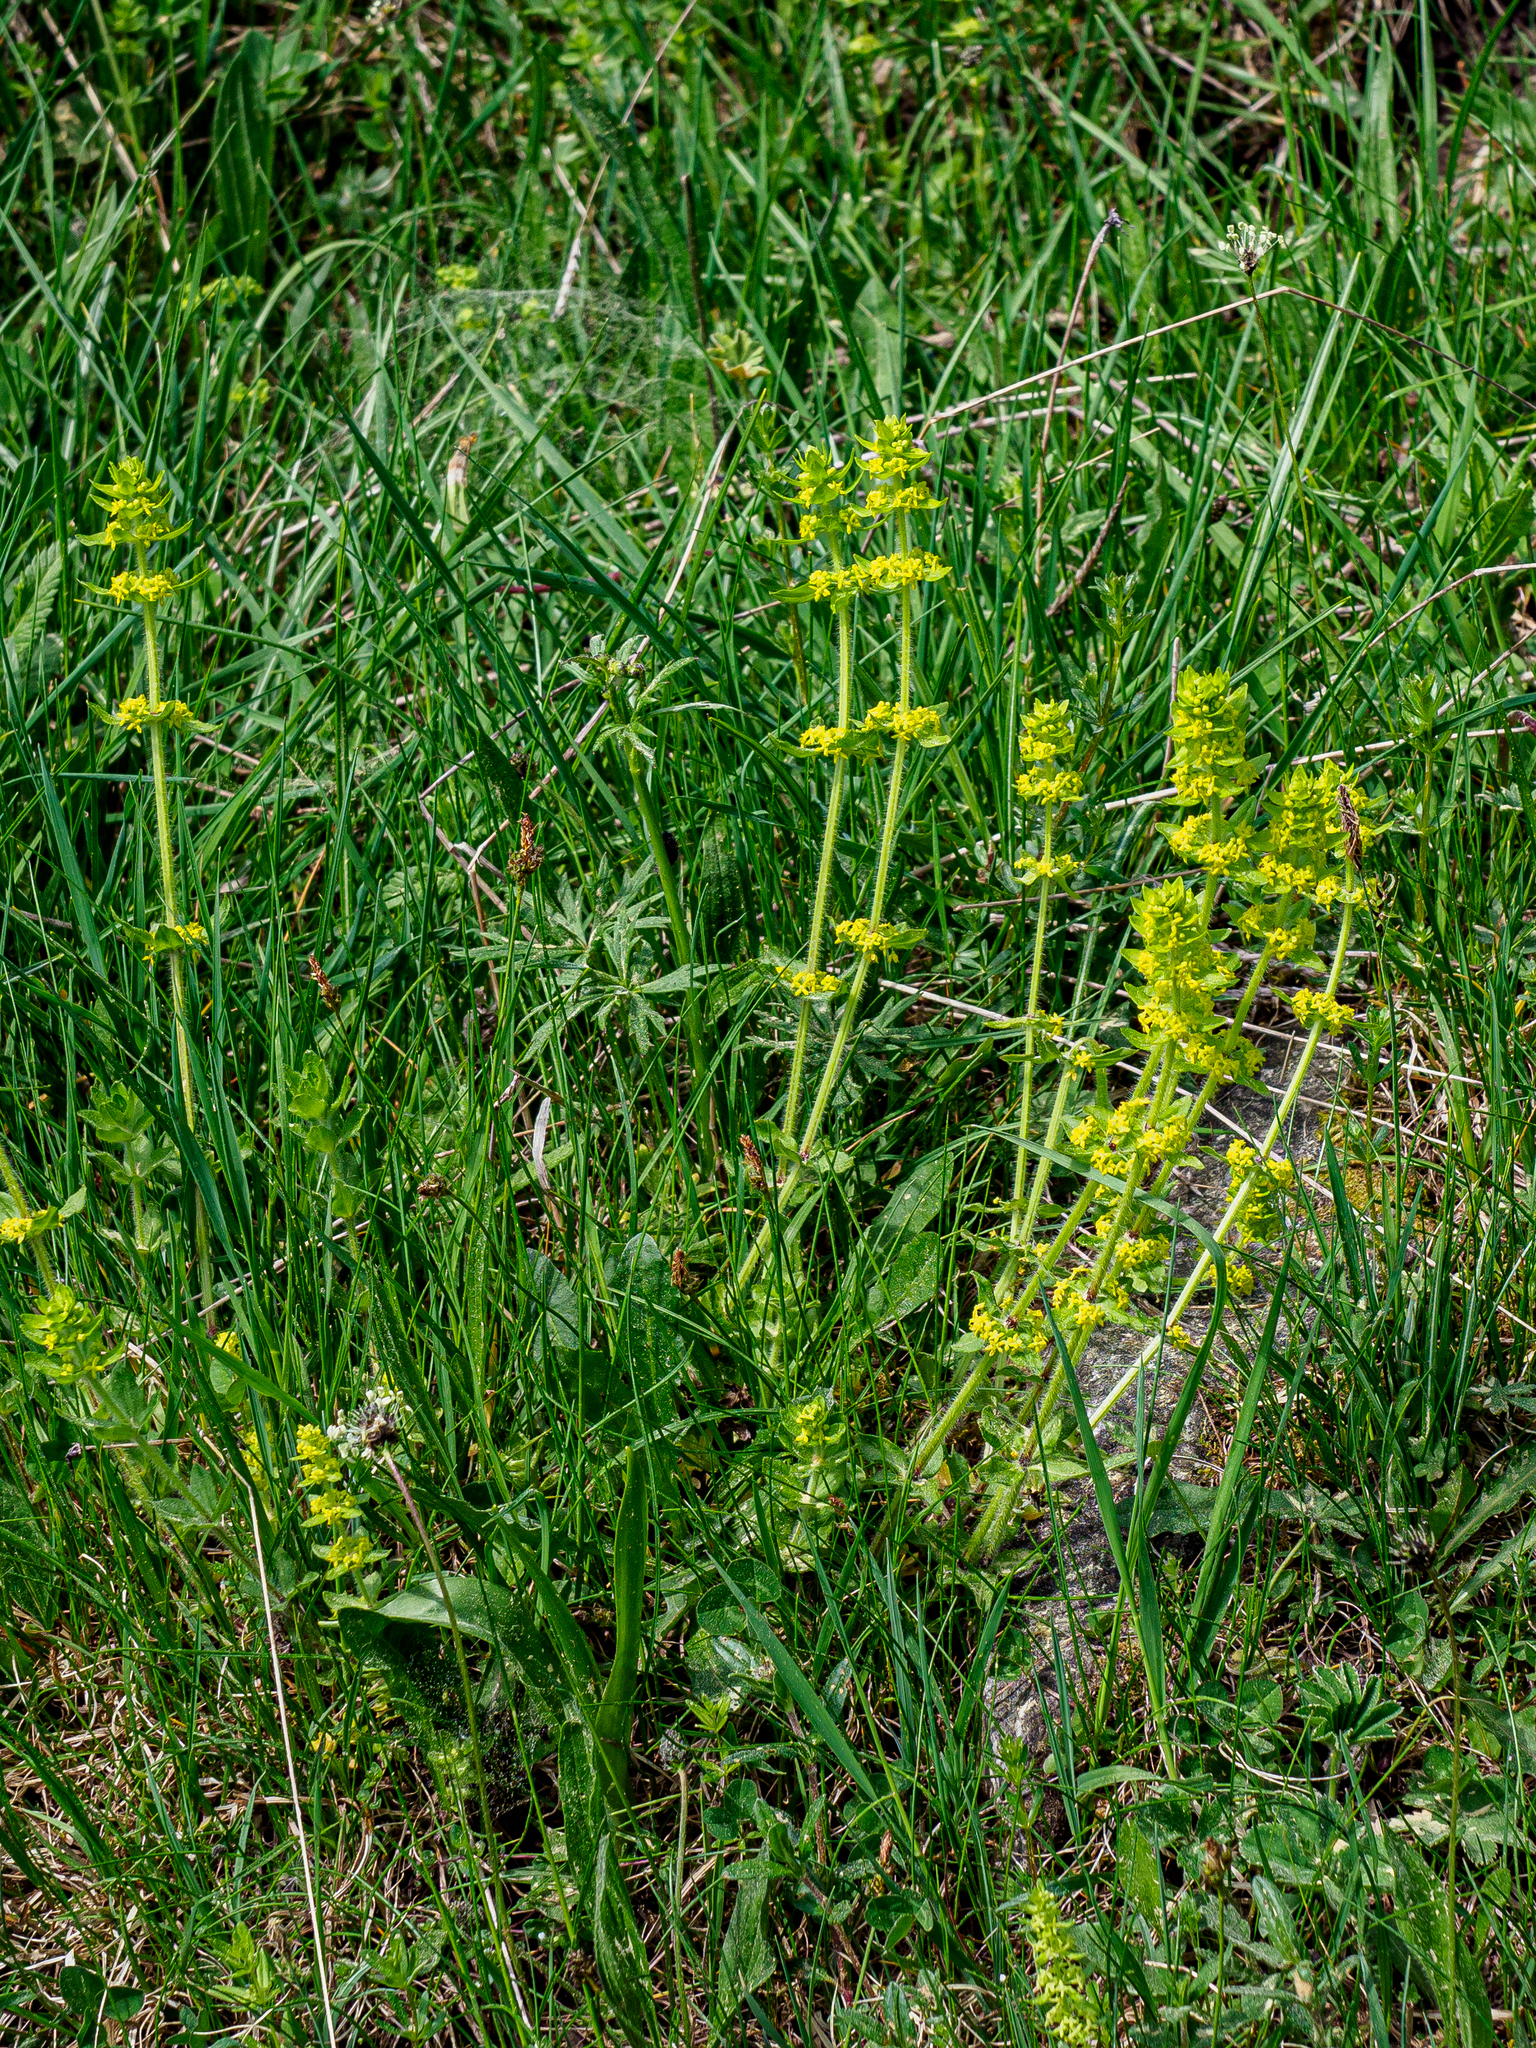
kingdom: Plantae
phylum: Tracheophyta
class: Magnoliopsida
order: Gentianales
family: Rubiaceae
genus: Cruciata
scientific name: Cruciata laevipes
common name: Crosswort
